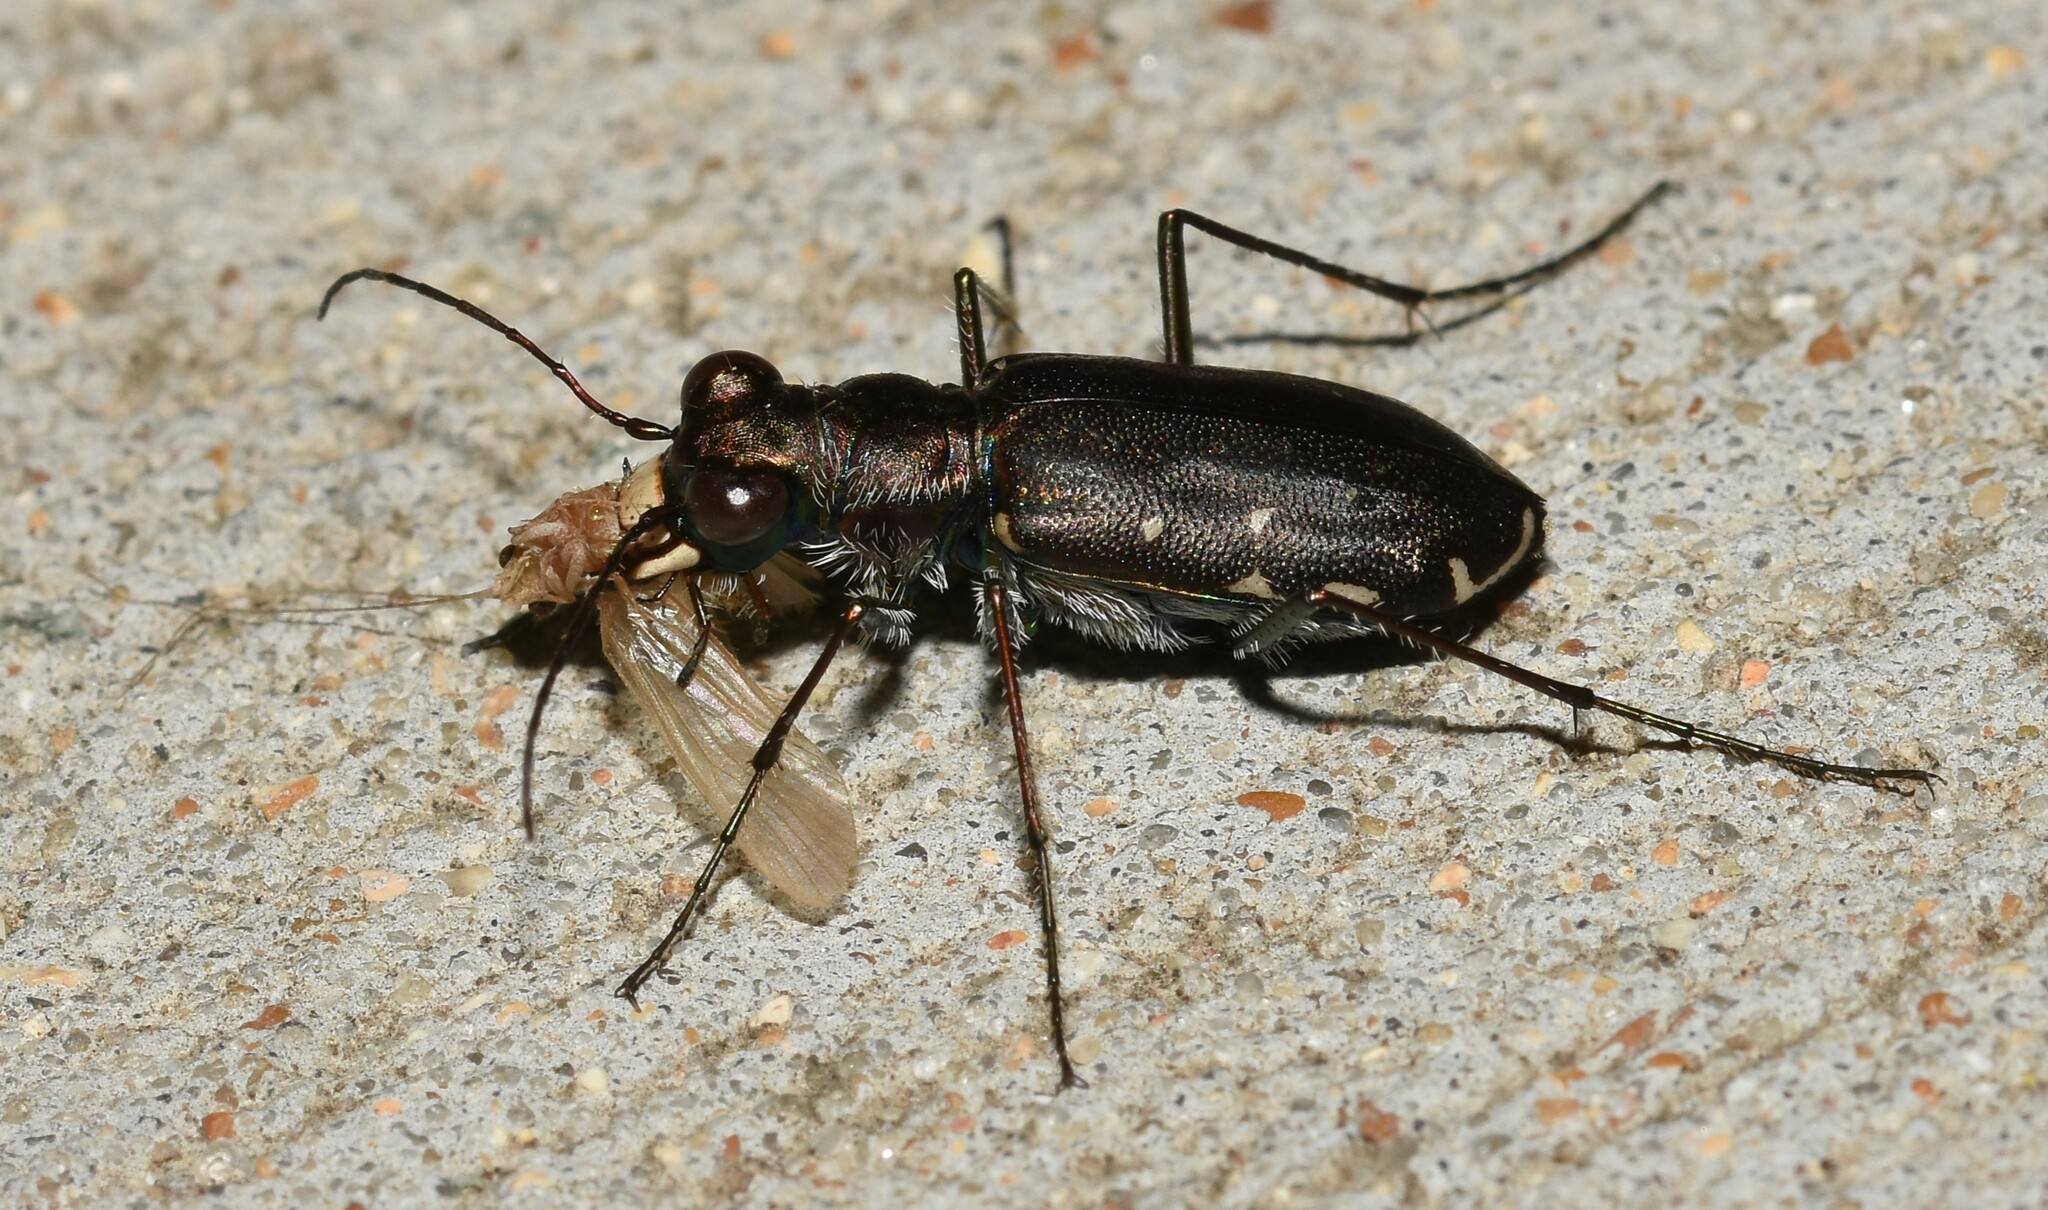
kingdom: Animalia
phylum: Arthropoda
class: Insecta
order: Coleoptera
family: Carabidae
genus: Cicindela
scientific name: Cicindela punctulata
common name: Punctured tiger beetle
